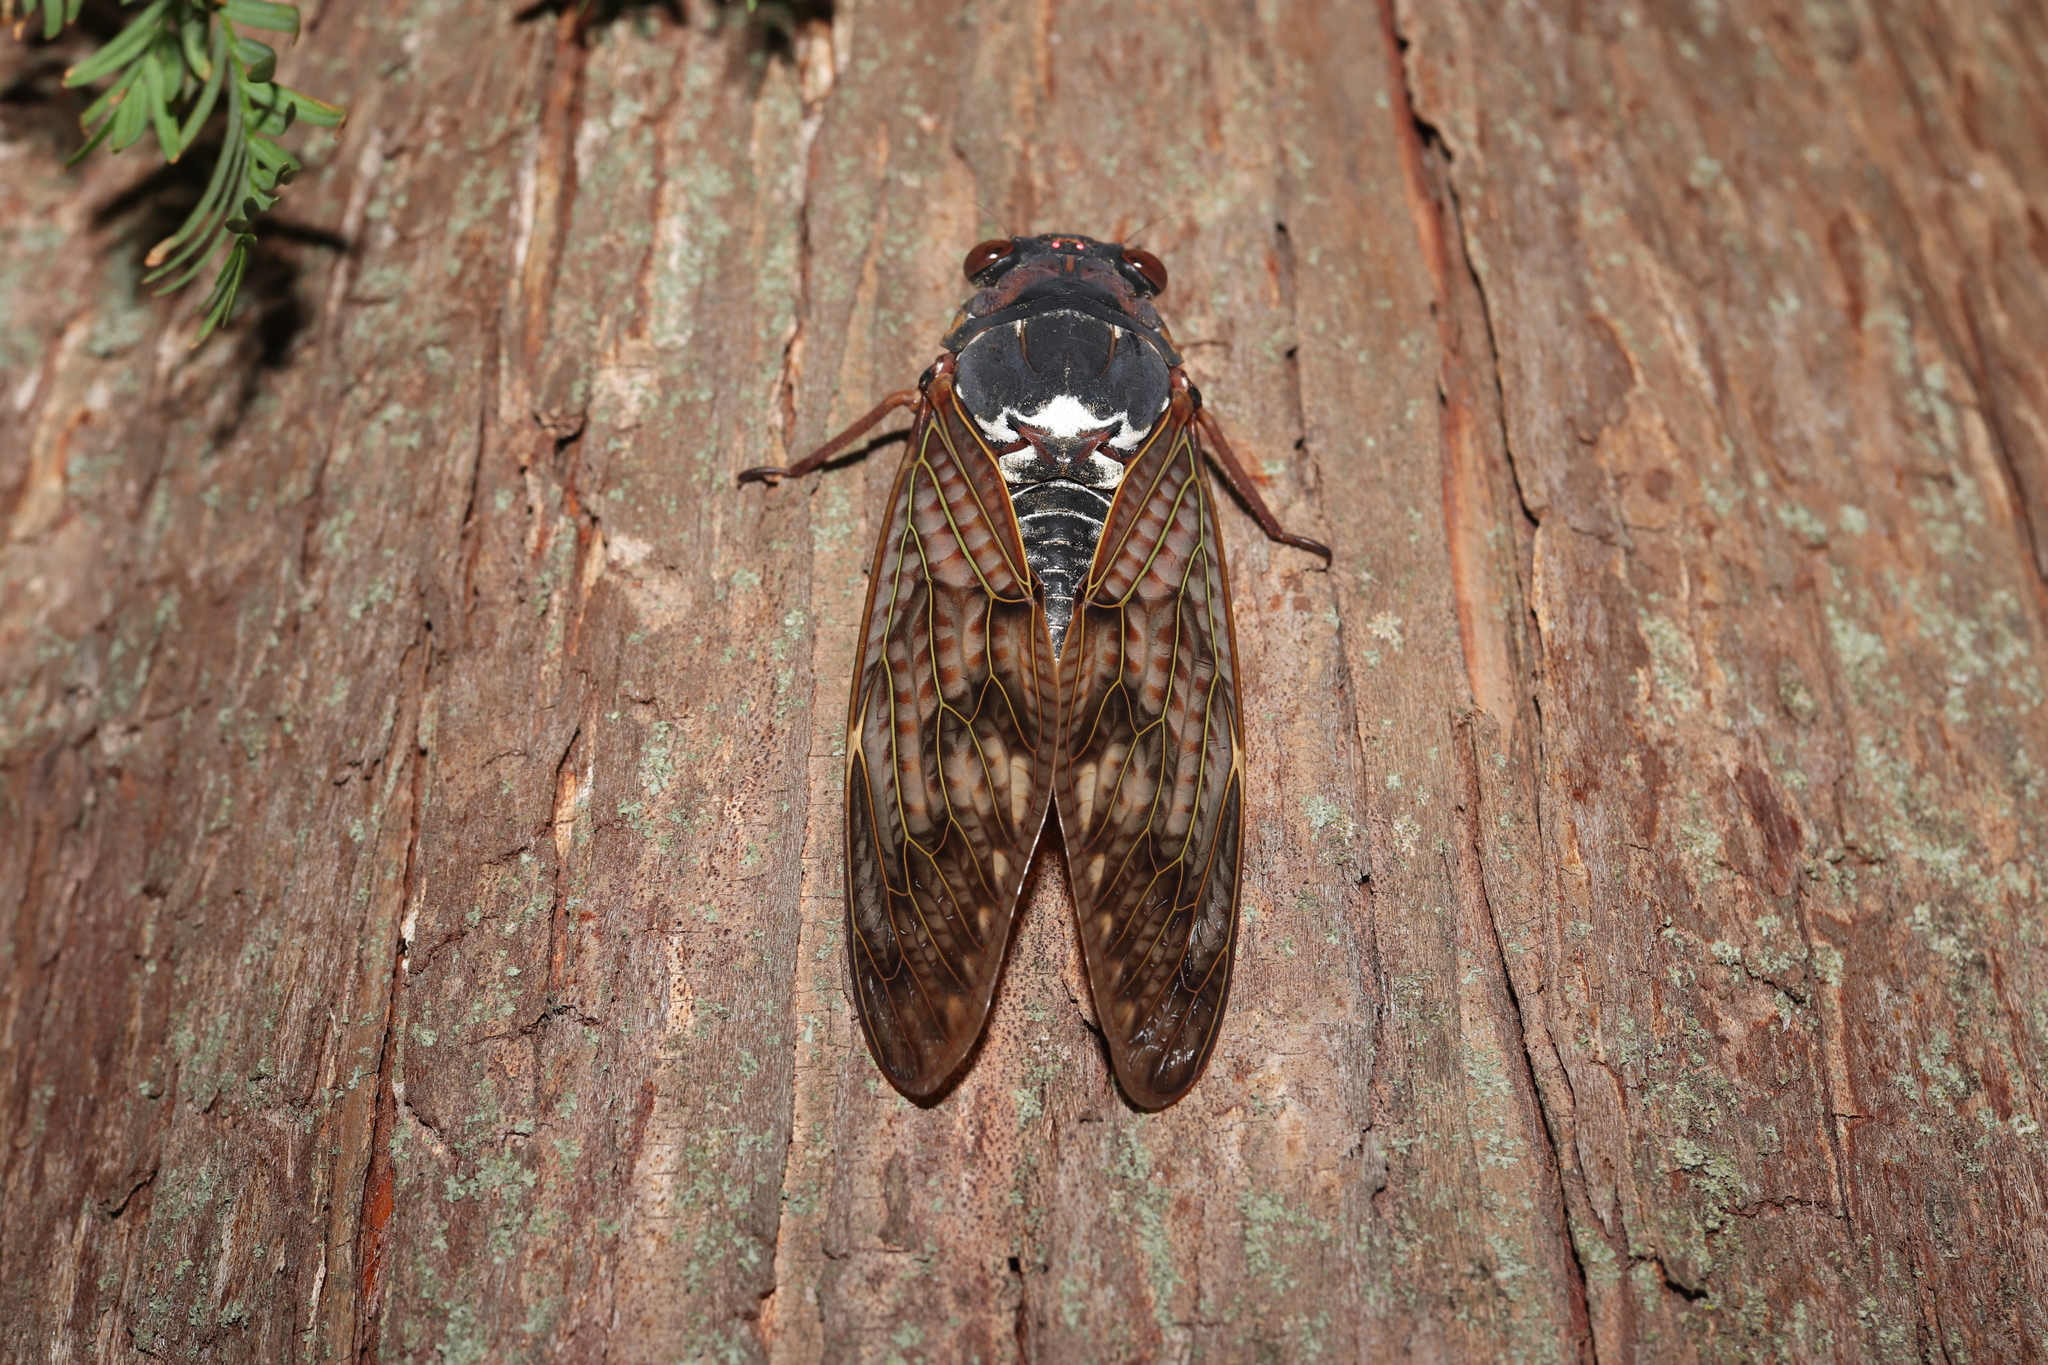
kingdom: Animalia
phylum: Arthropoda
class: Insecta
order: Hemiptera
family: Cicadidae
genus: Graptopsaltria
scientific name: Graptopsaltria nigrofuscata
